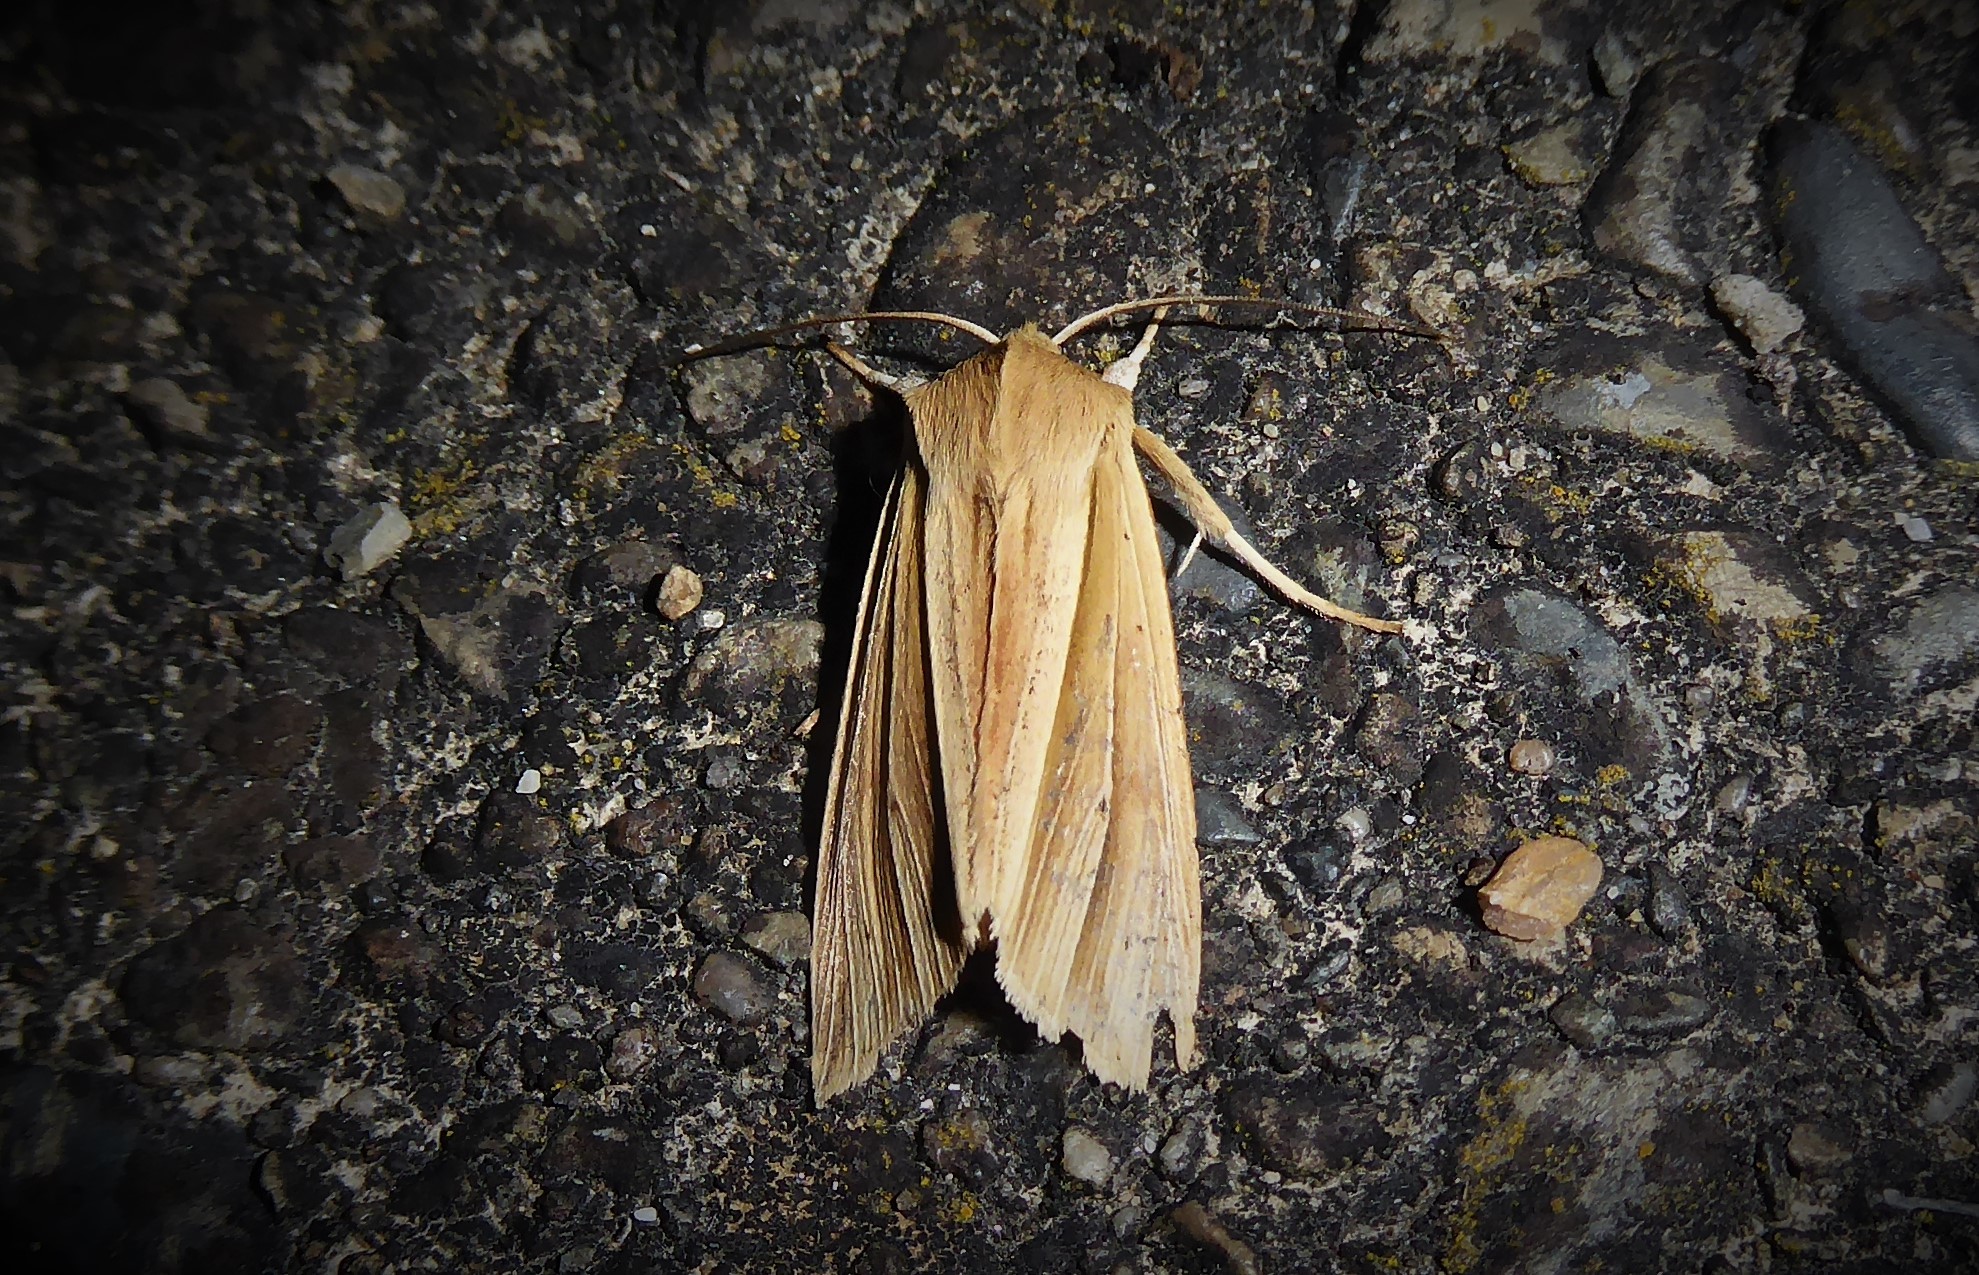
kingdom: Animalia
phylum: Arthropoda
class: Insecta
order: Lepidoptera
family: Noctuidae
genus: Ichneutica
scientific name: Ichneutica sulcana
